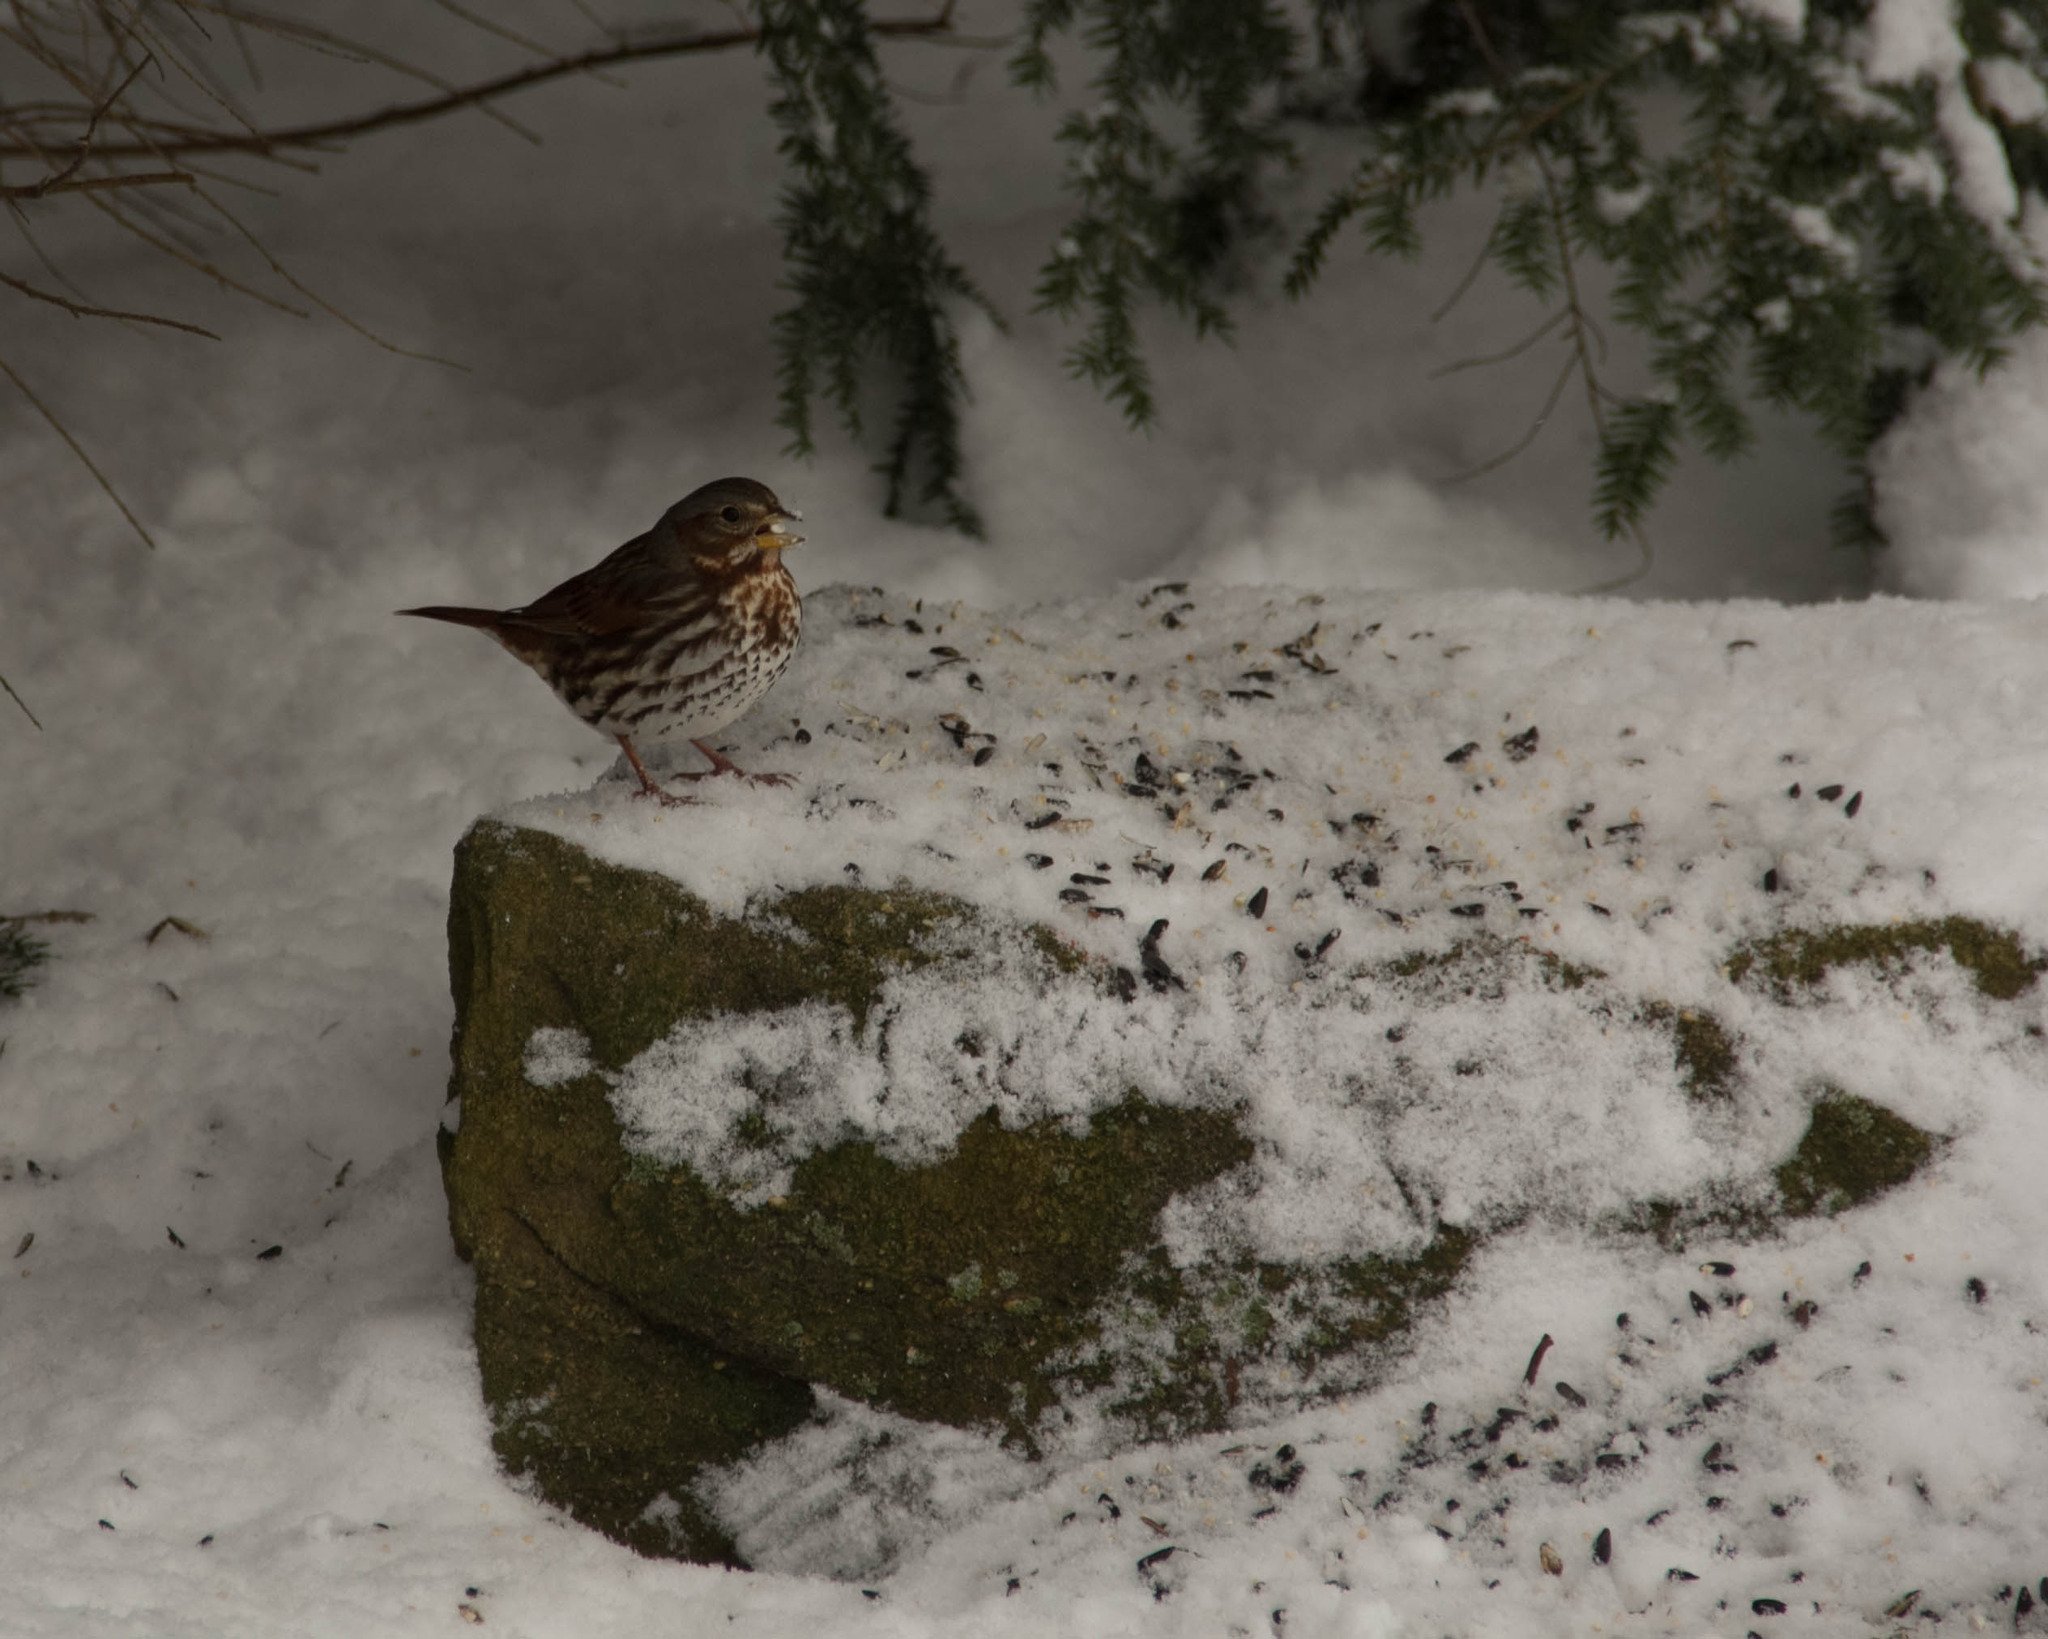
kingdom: Animalia
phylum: Chordata
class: Aves
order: Passeriformes
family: Passerellidae
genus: Passerella
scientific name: Passerella iliaca
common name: Fox sparrow
